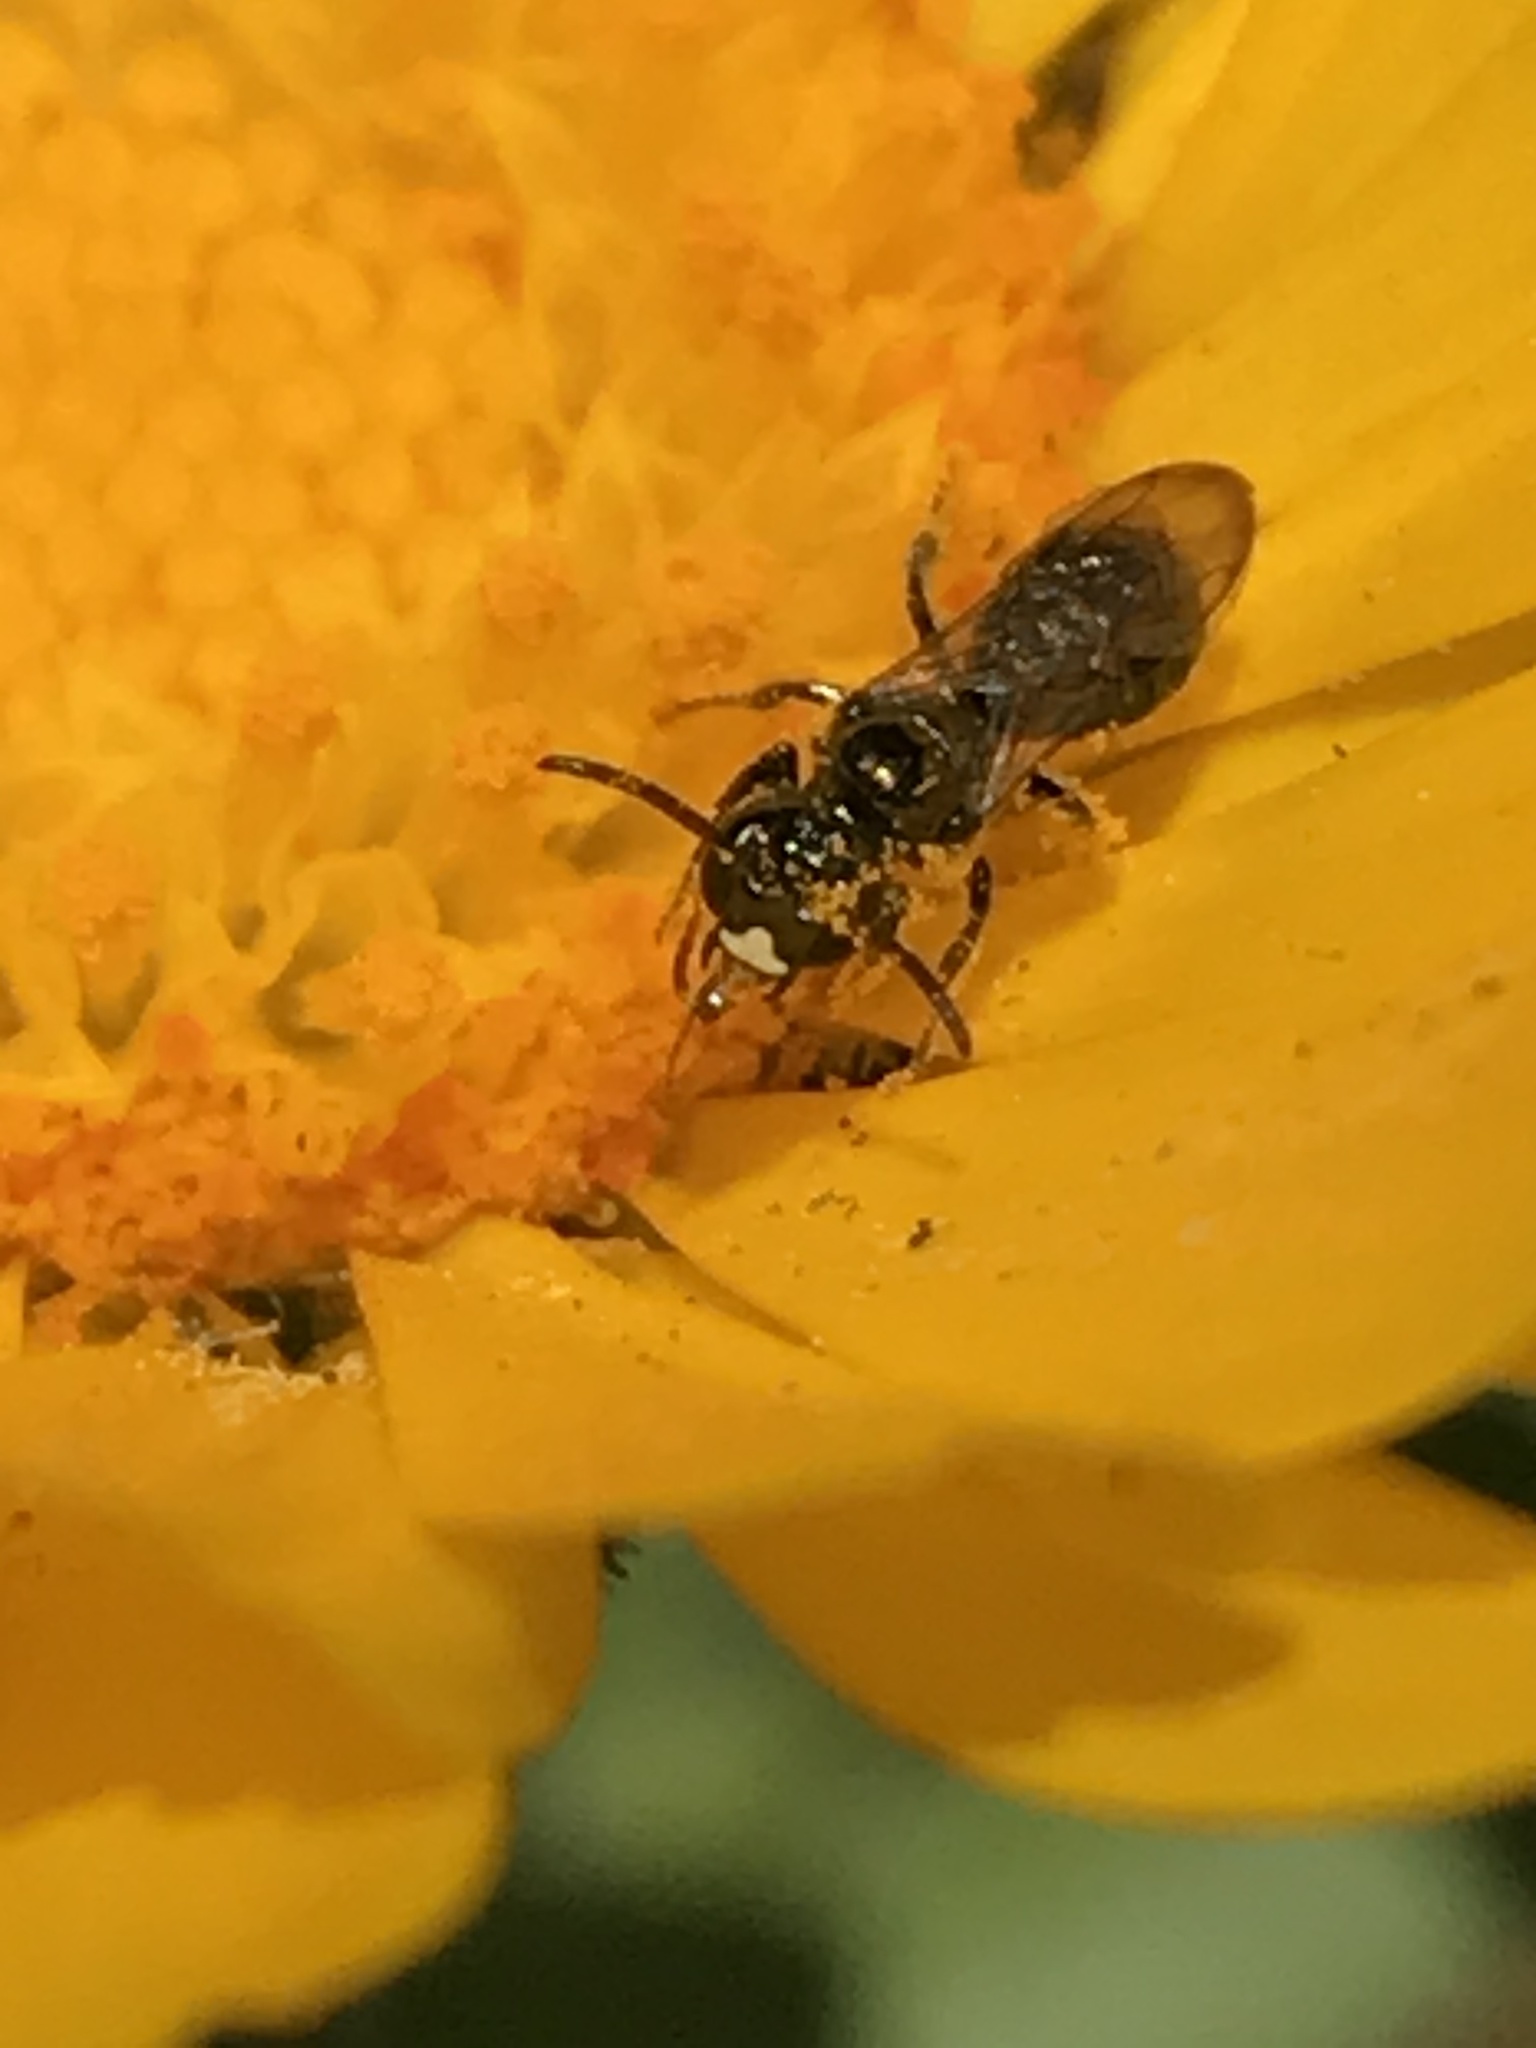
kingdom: Animalia
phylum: Arthropoda
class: Insecta
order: Hymenoptera
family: Apidae
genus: Zadontomerus
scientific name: Zadontomerus
